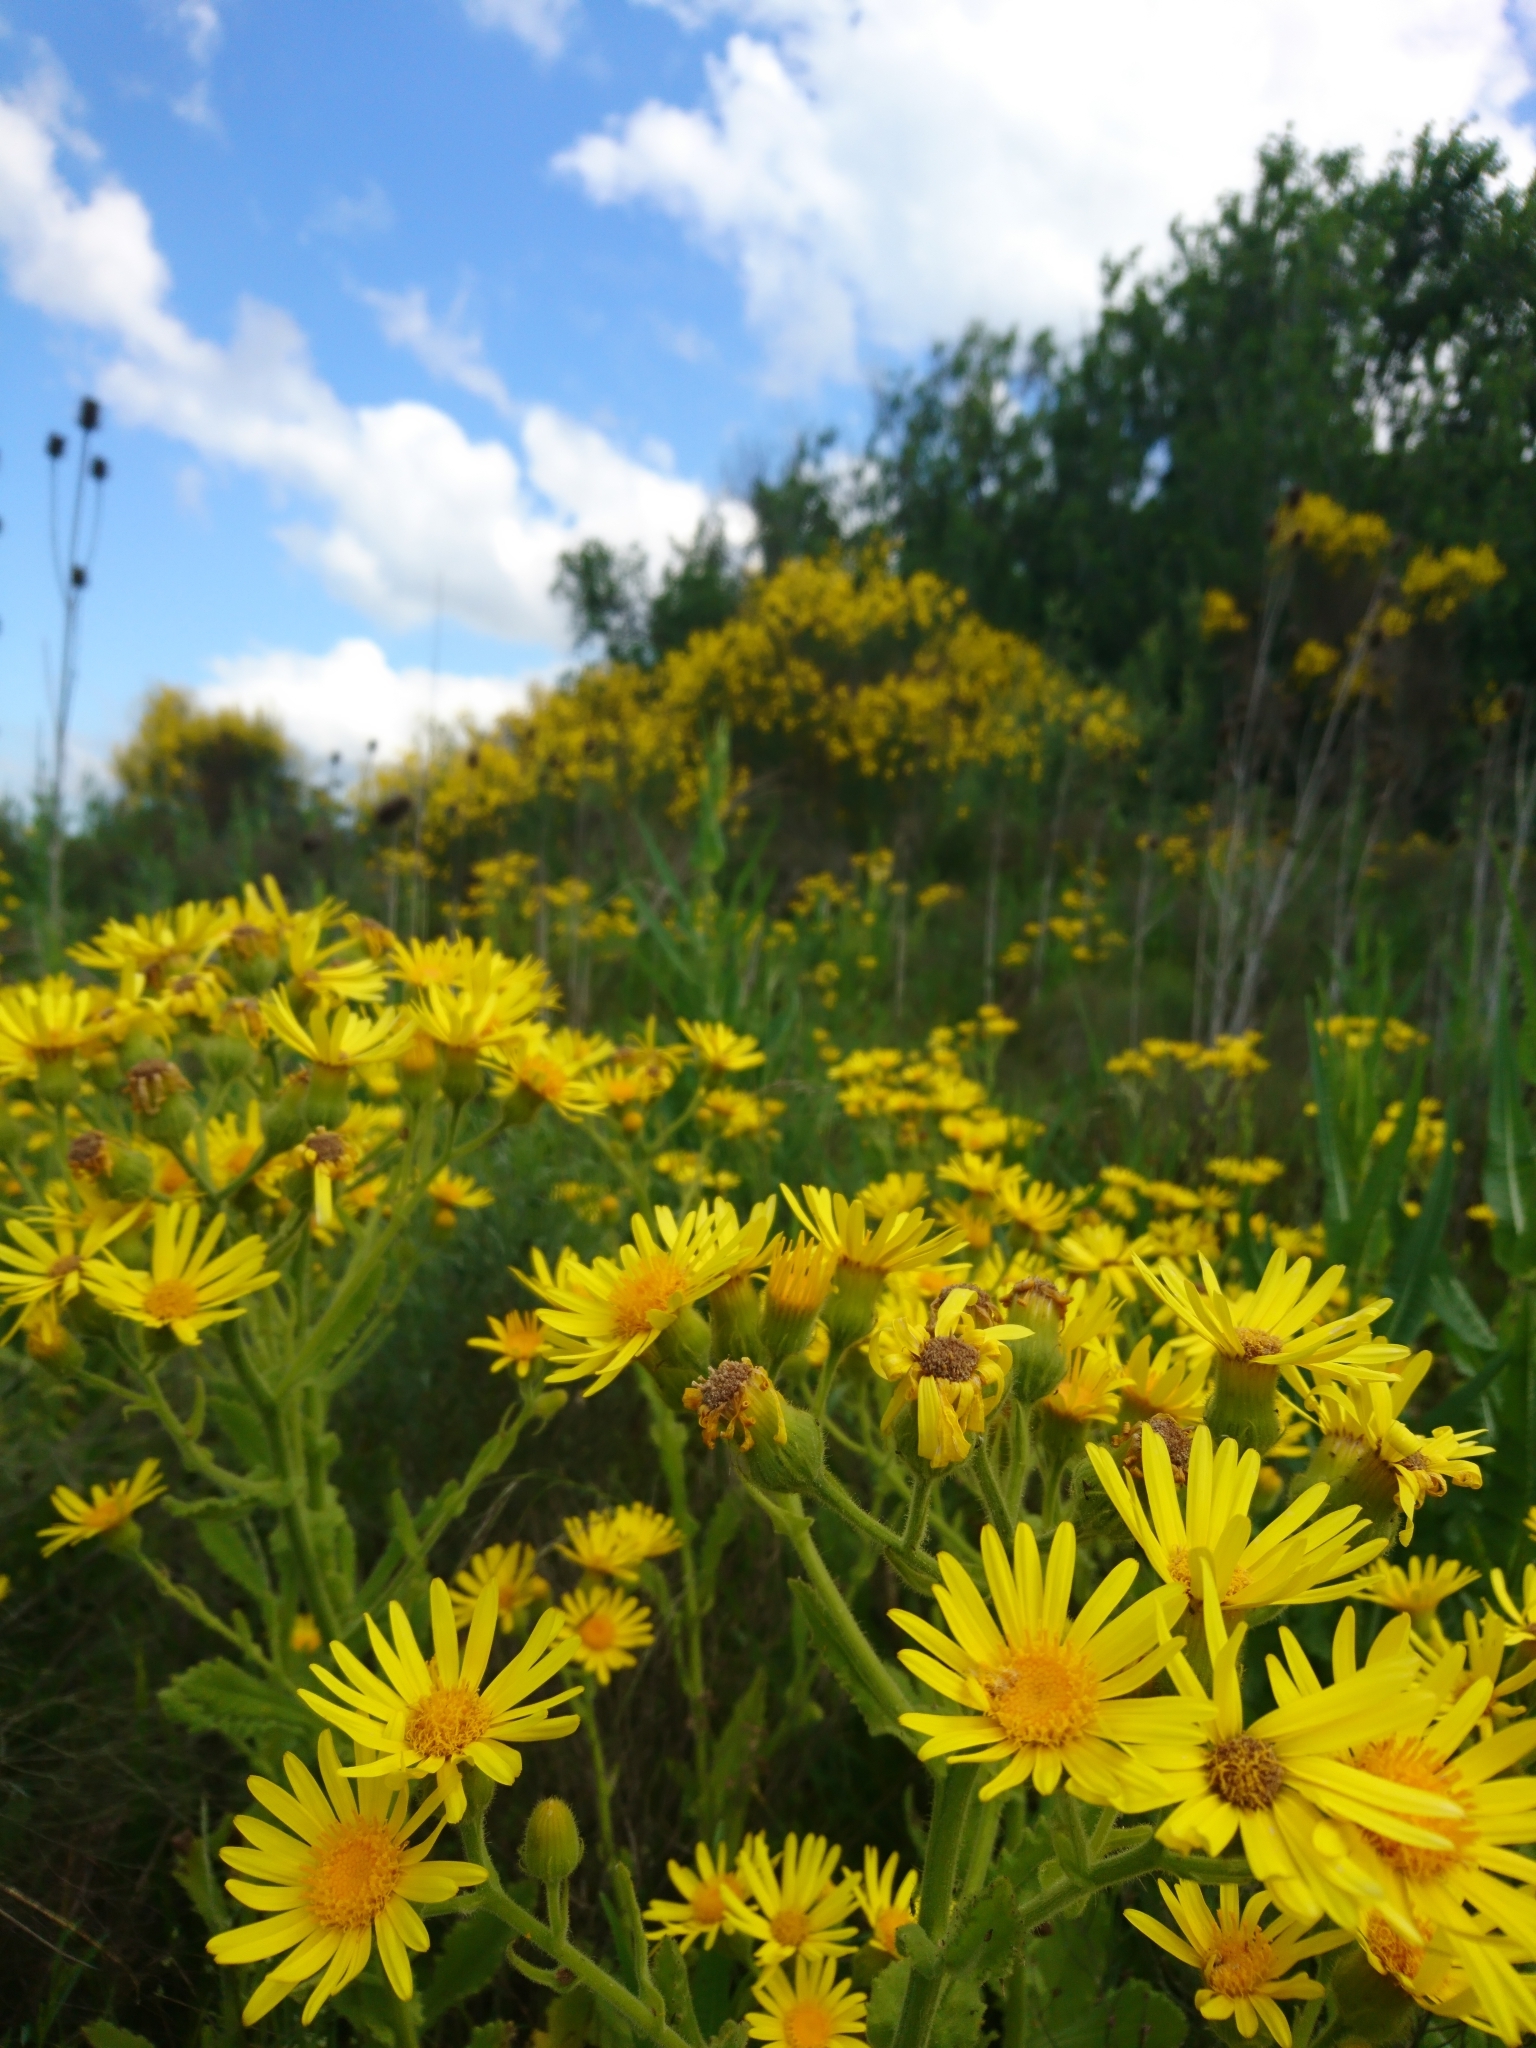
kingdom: Plantae
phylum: Tracheophyta
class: Magnoliopsida
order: Asterales
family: Asteraceae
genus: Senecio
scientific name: Senecio selloi
